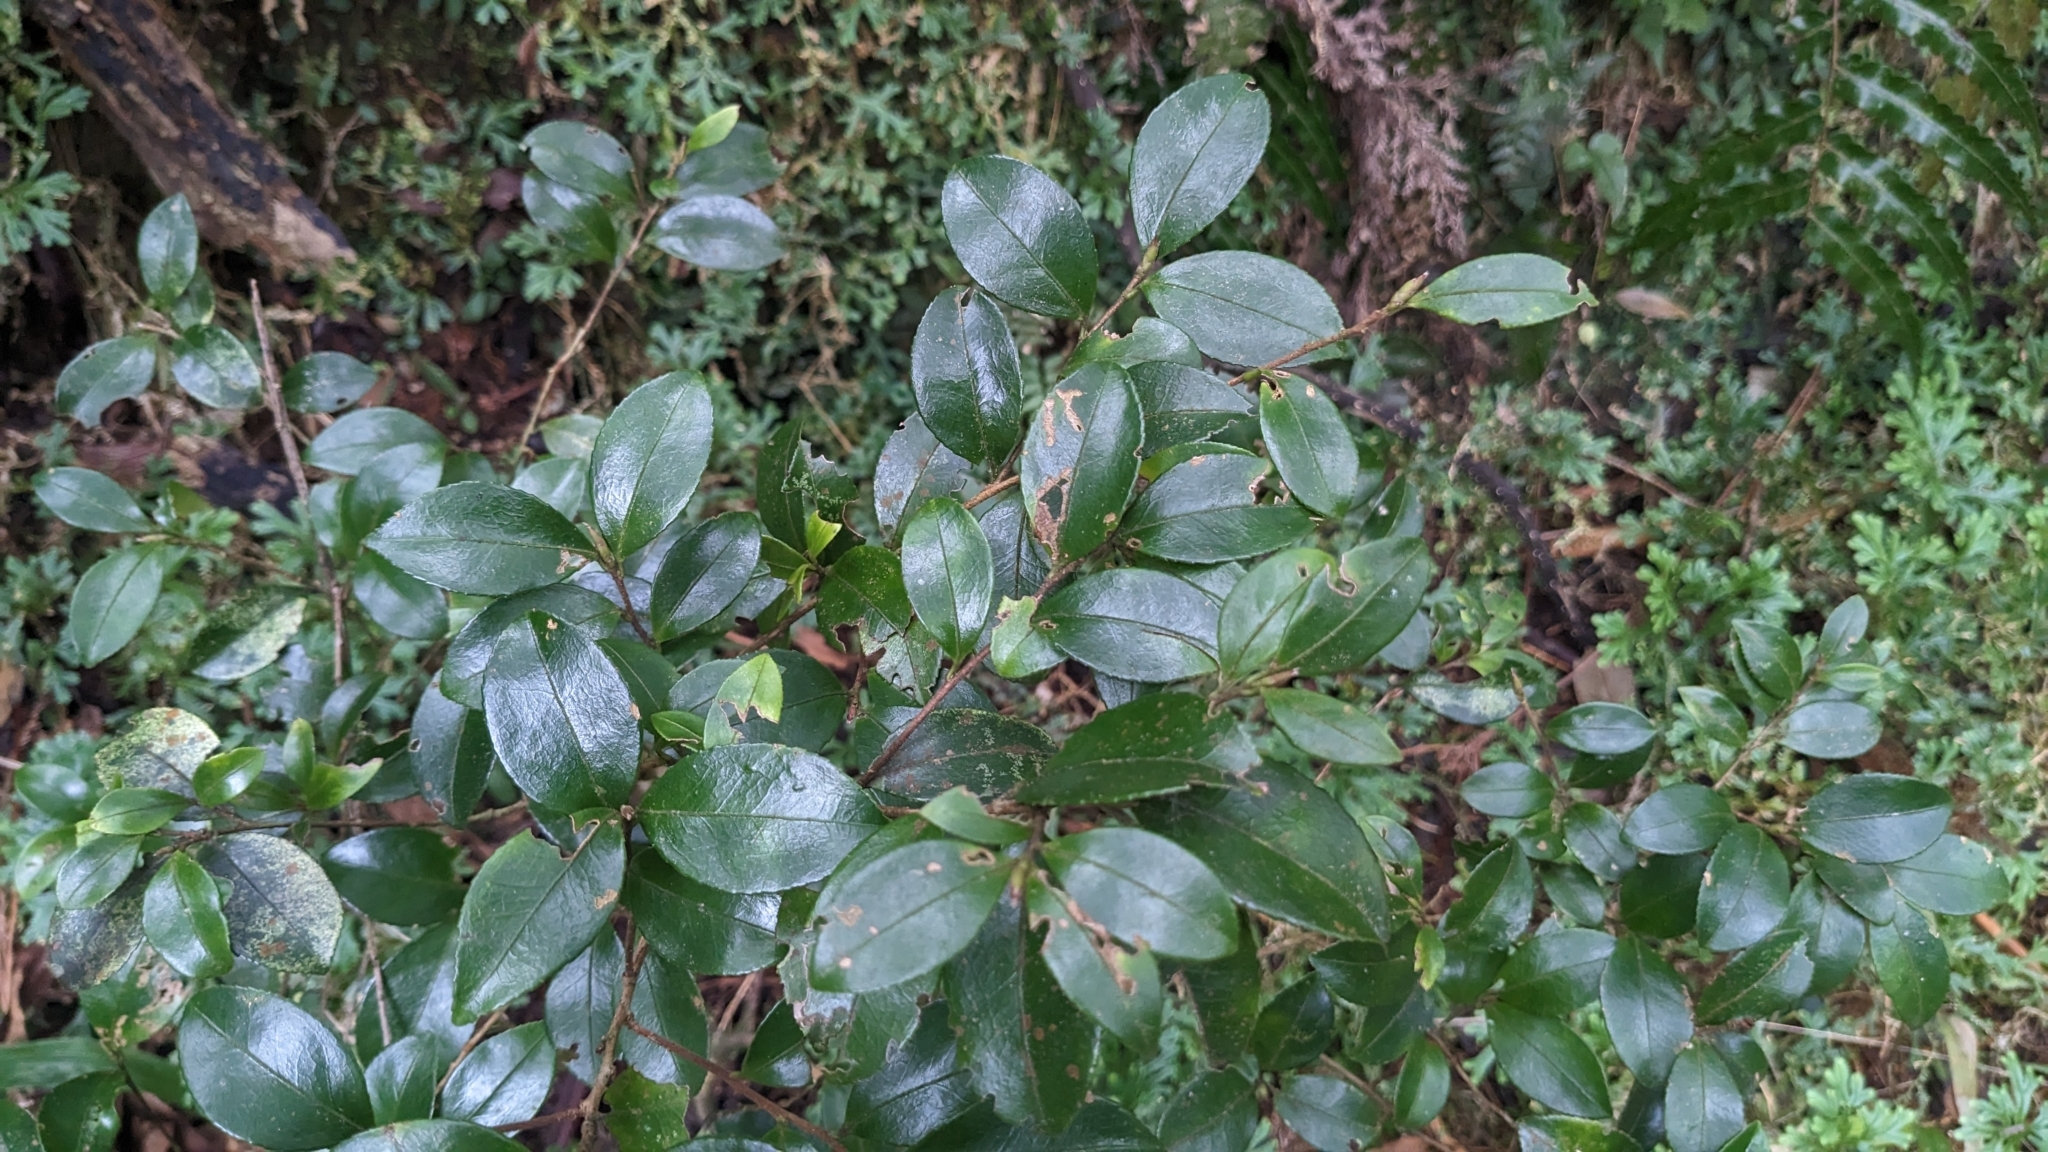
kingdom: Plantae
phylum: Tracheophyta
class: Magnoliopsida
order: Ericales
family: Theaceae
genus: Camellia
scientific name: Camellia brevistyla
